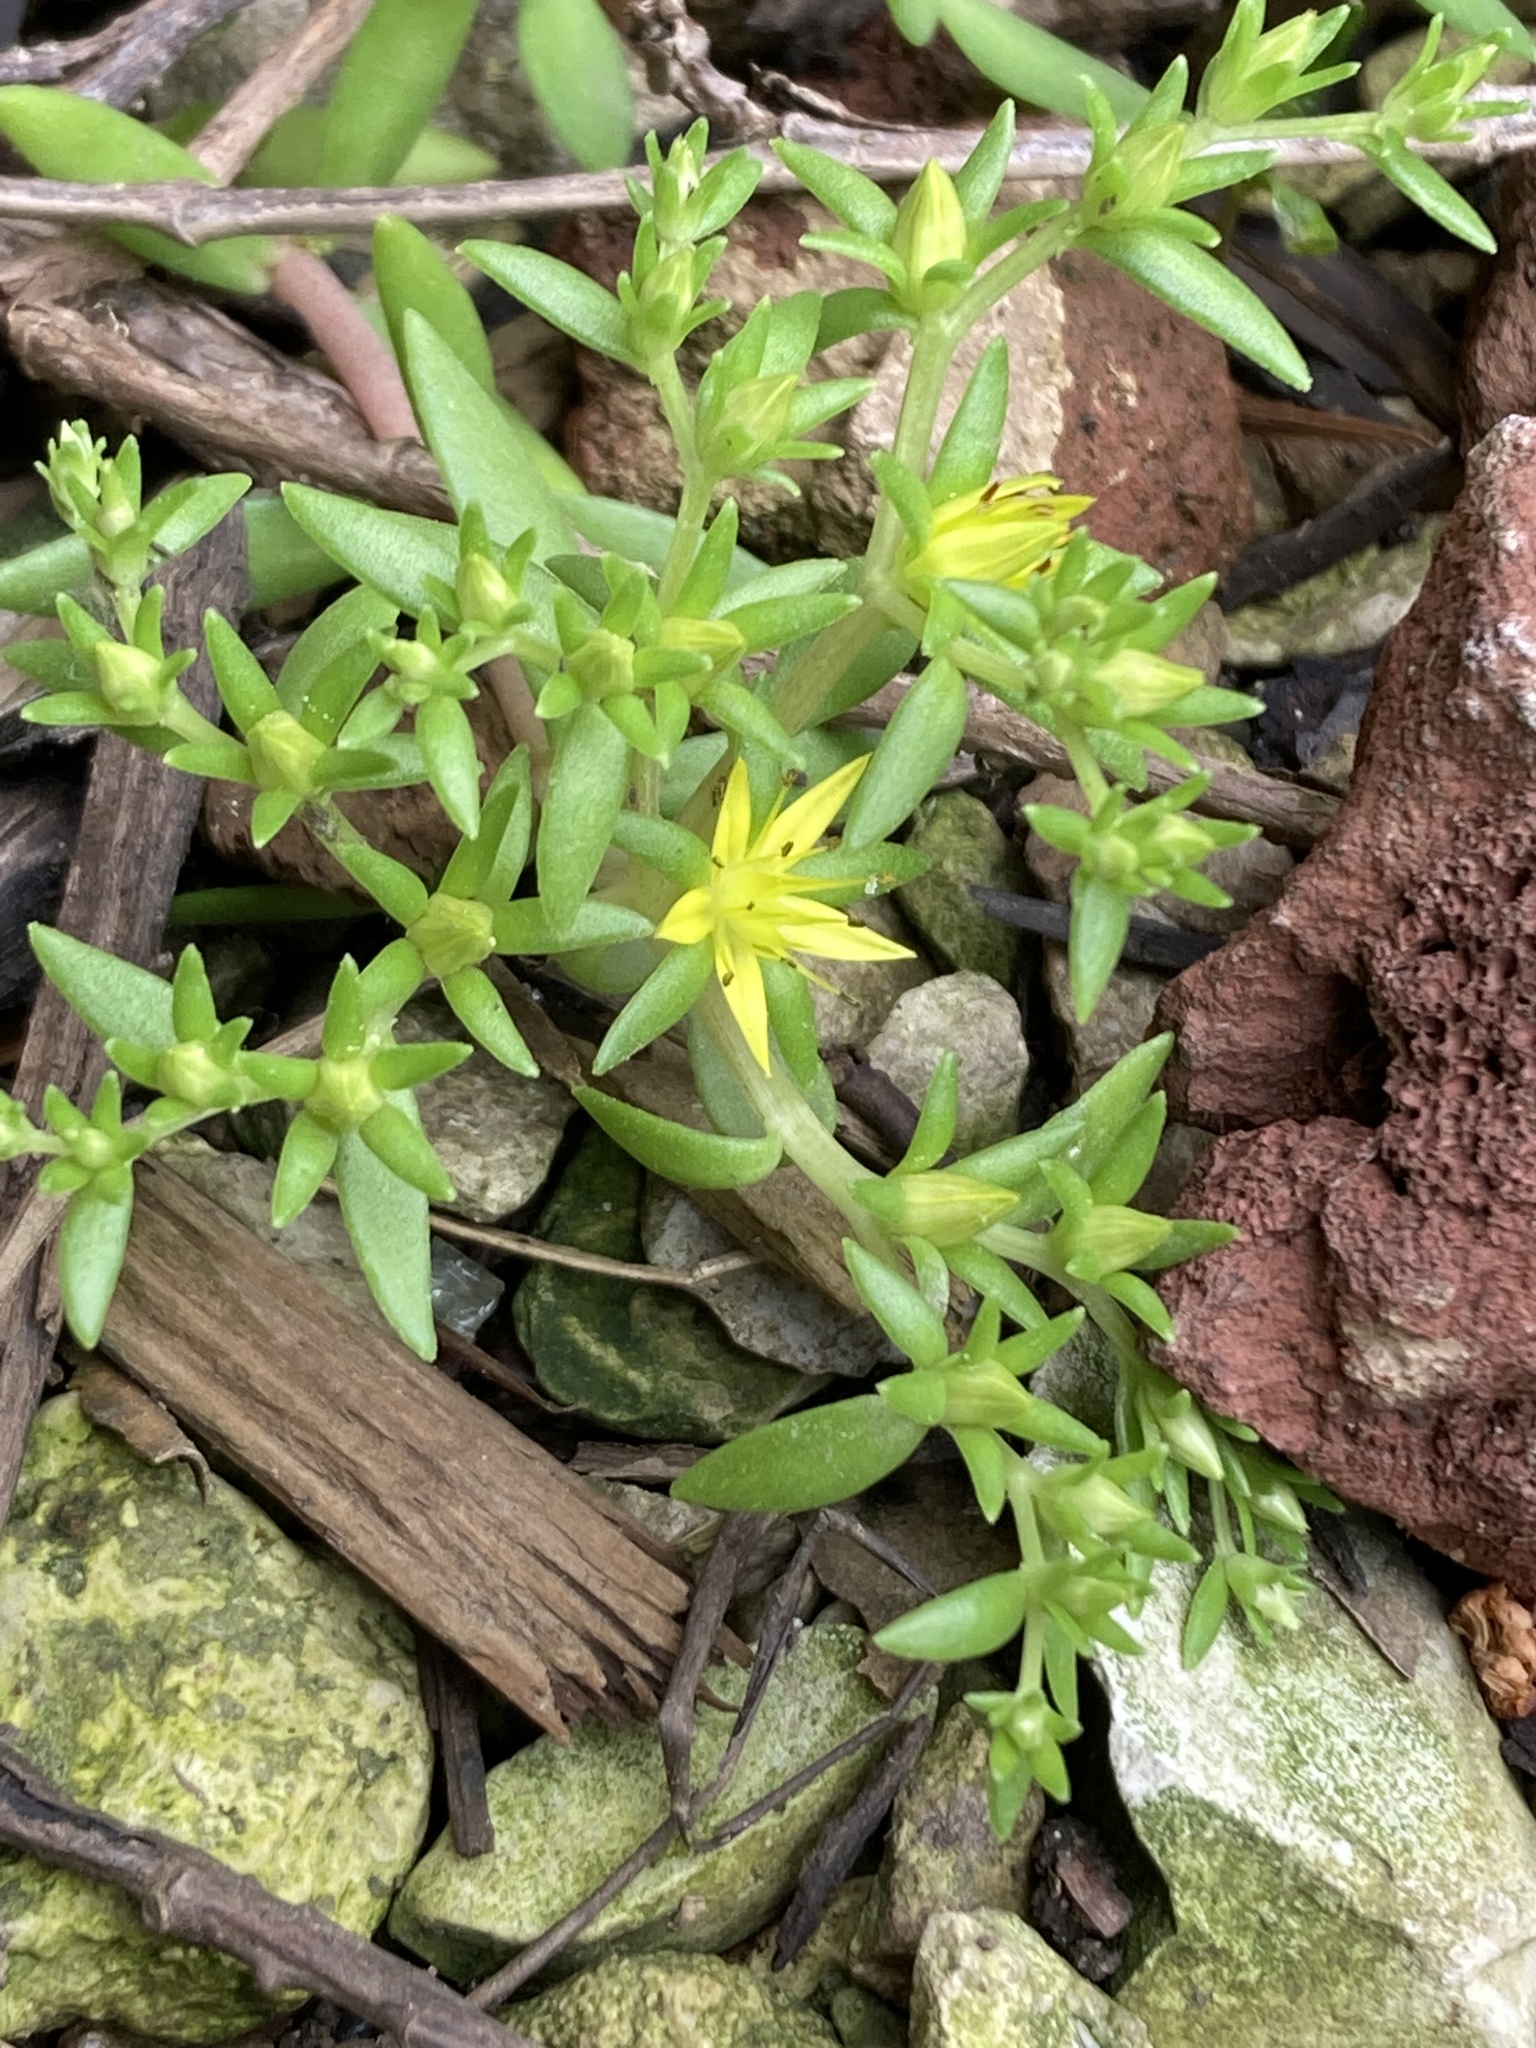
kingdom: Plantae
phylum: Tracheophyta
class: Magnoliopsida
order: Saxifragales
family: Crassulaceae
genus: Sedum
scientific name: Sedum sarmentosum
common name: Stringy stonecrop
